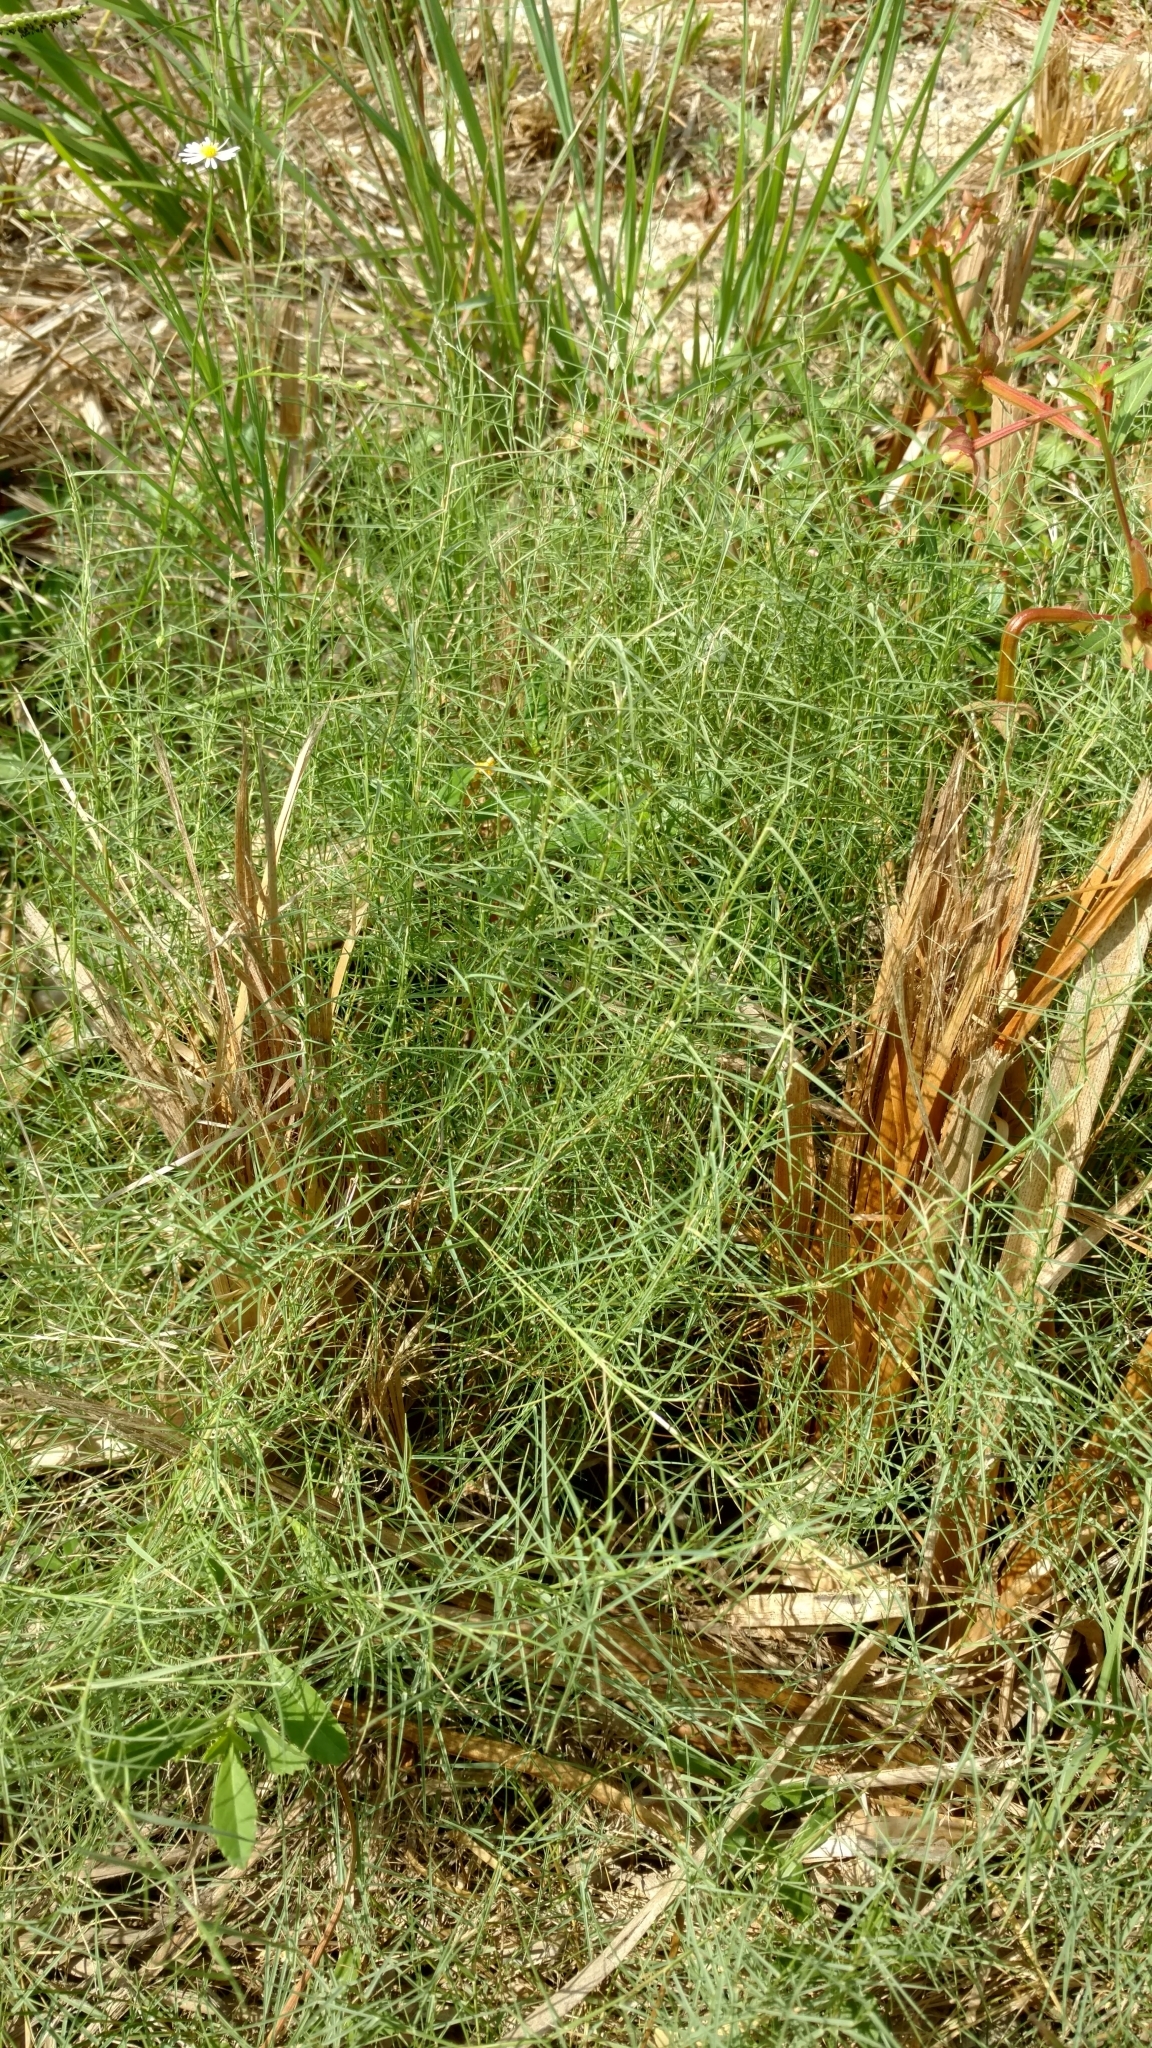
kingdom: Plantae
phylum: Tracheophyta
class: Liliopsida
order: Poales
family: Poaceae
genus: Muhlenbergia
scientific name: Muhlenbergia utilis
